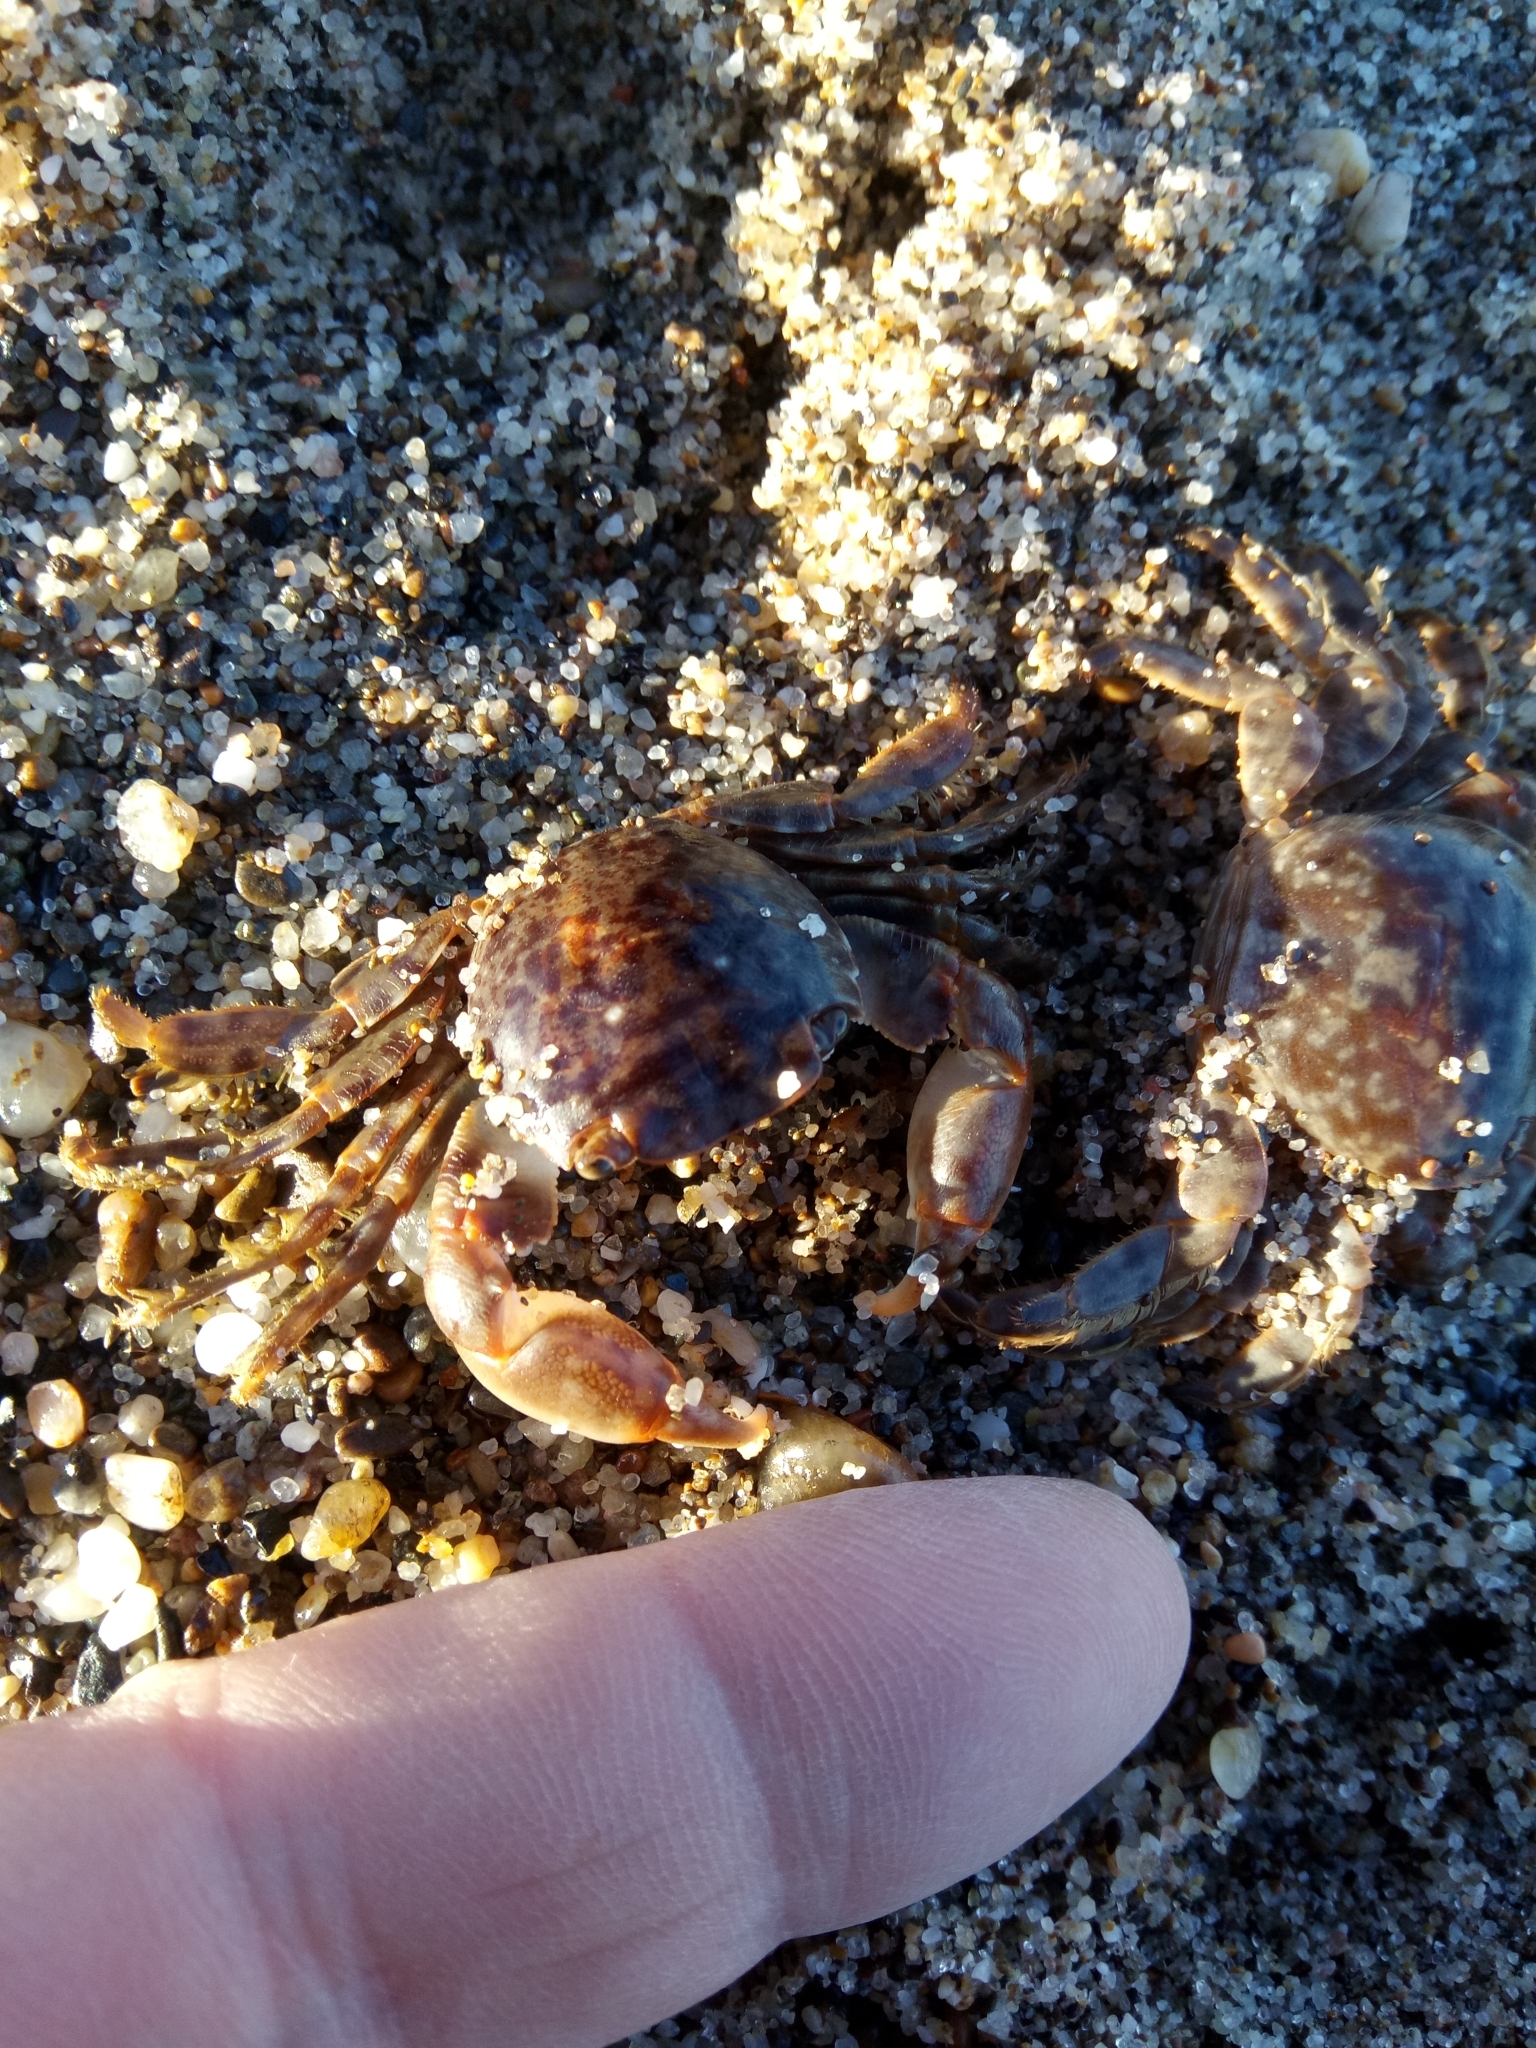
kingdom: Animalia
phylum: Arthropoda
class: Malacostraca
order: Decapoda
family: Grapsidae
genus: Planes
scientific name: Planes minutus
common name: Gulf weed crab
